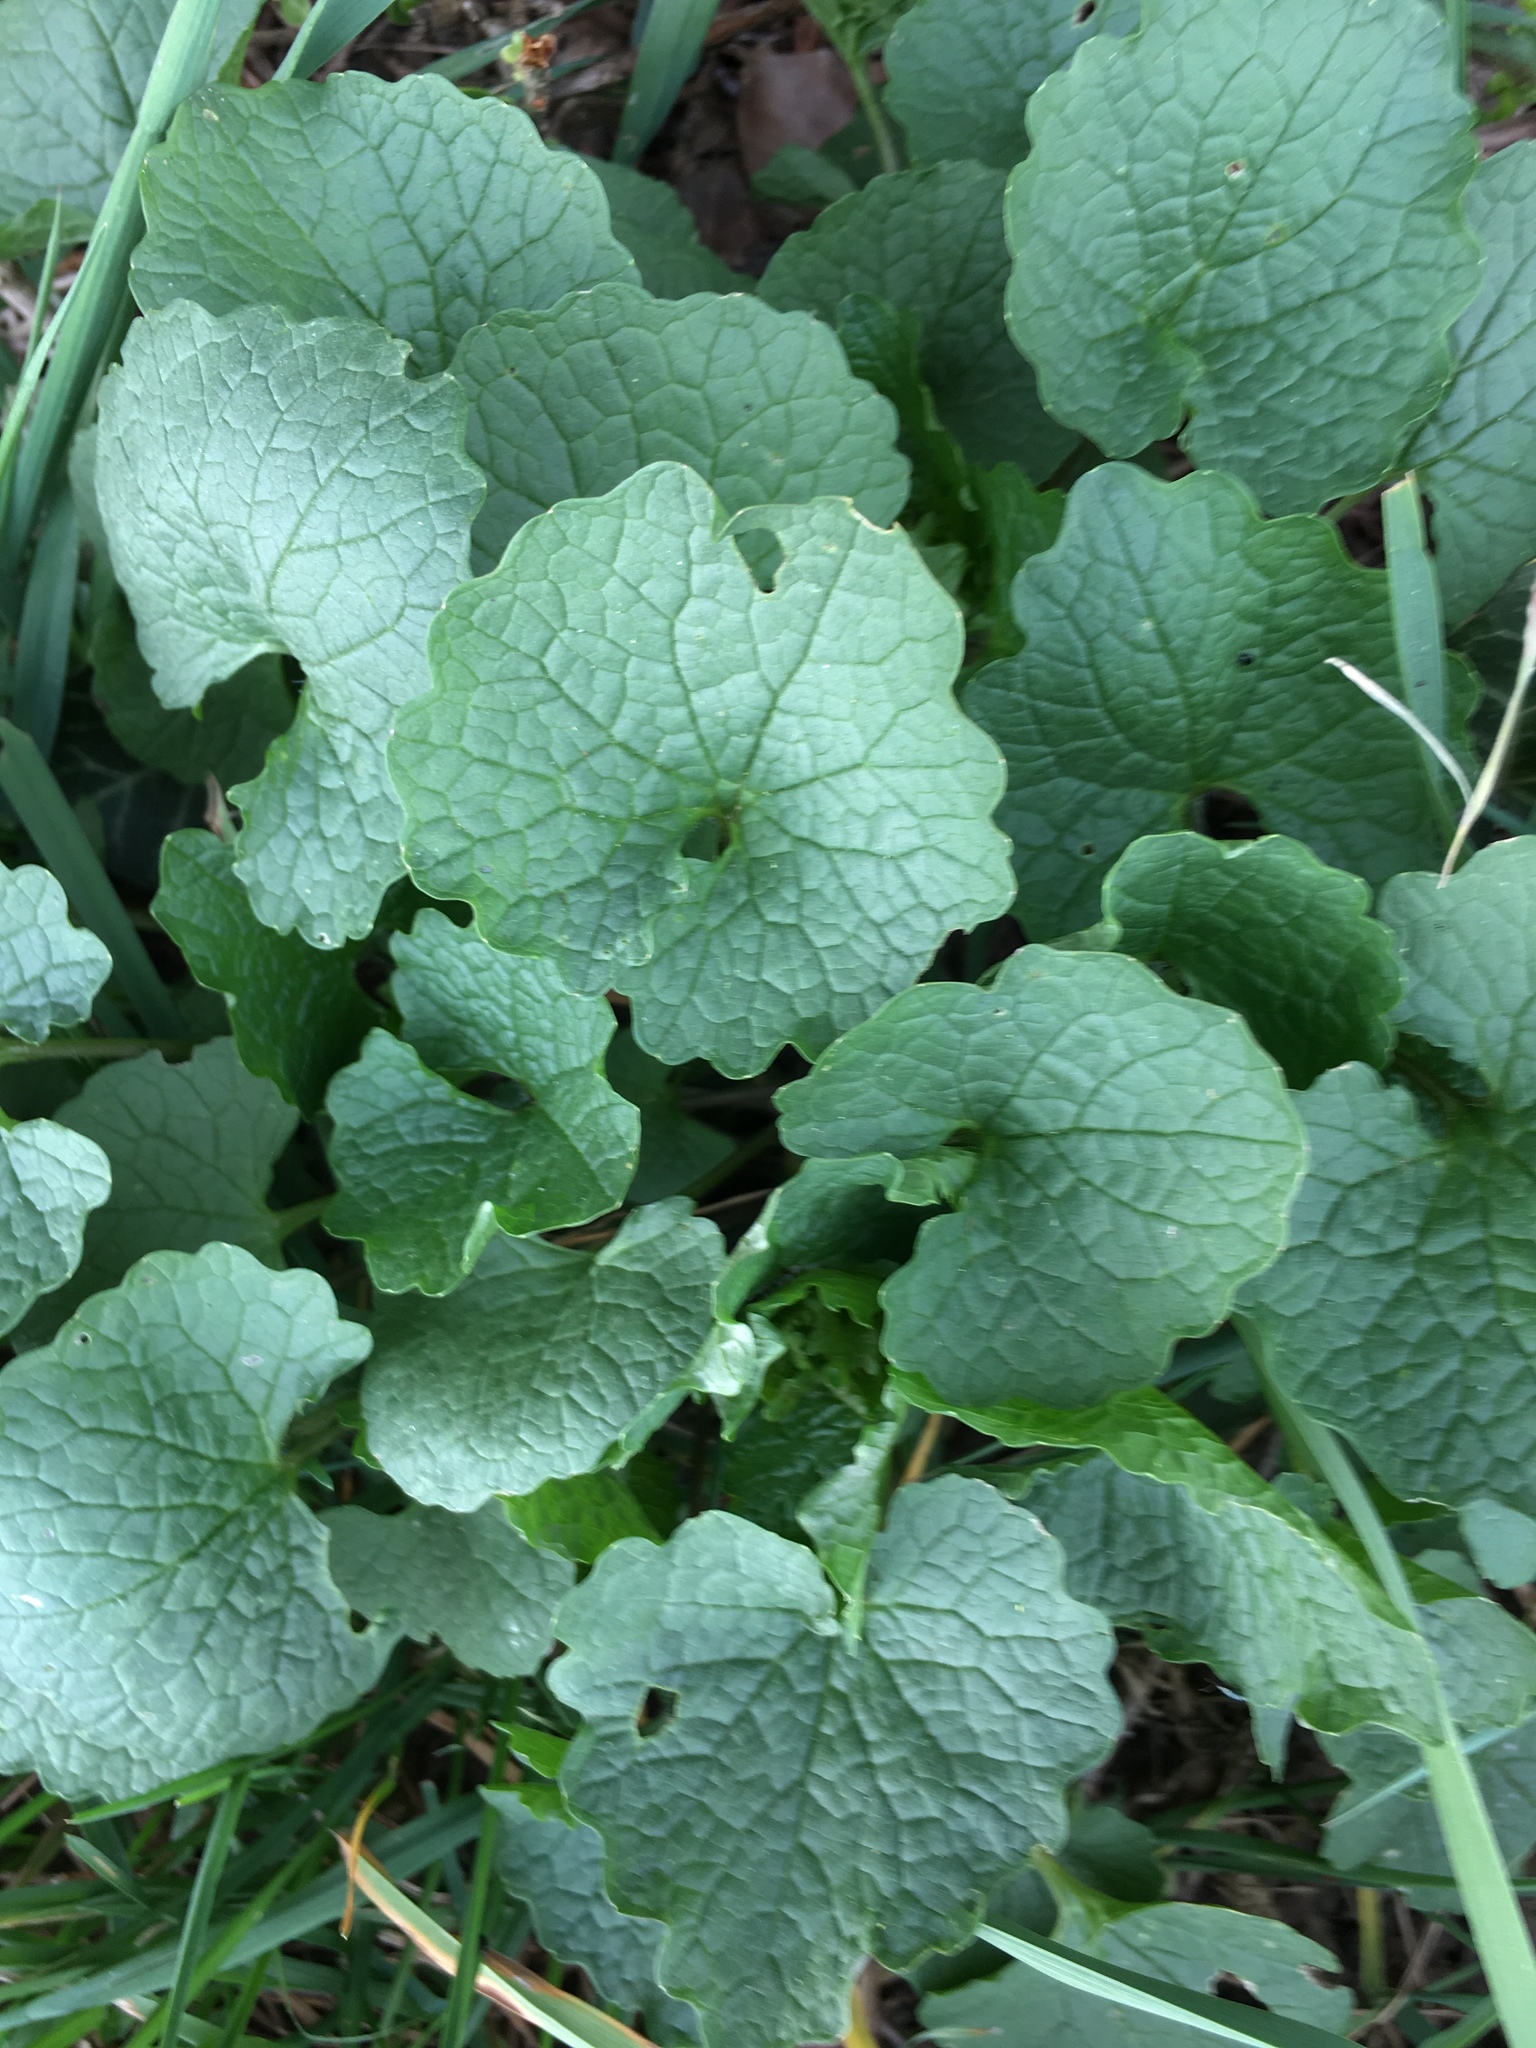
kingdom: Plantae
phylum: Tracheophyta
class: Magnoliopsida
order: Brassicales
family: Brassicaceae
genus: Alliaria
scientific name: Alliaria petiolata
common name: Garlic mustard
